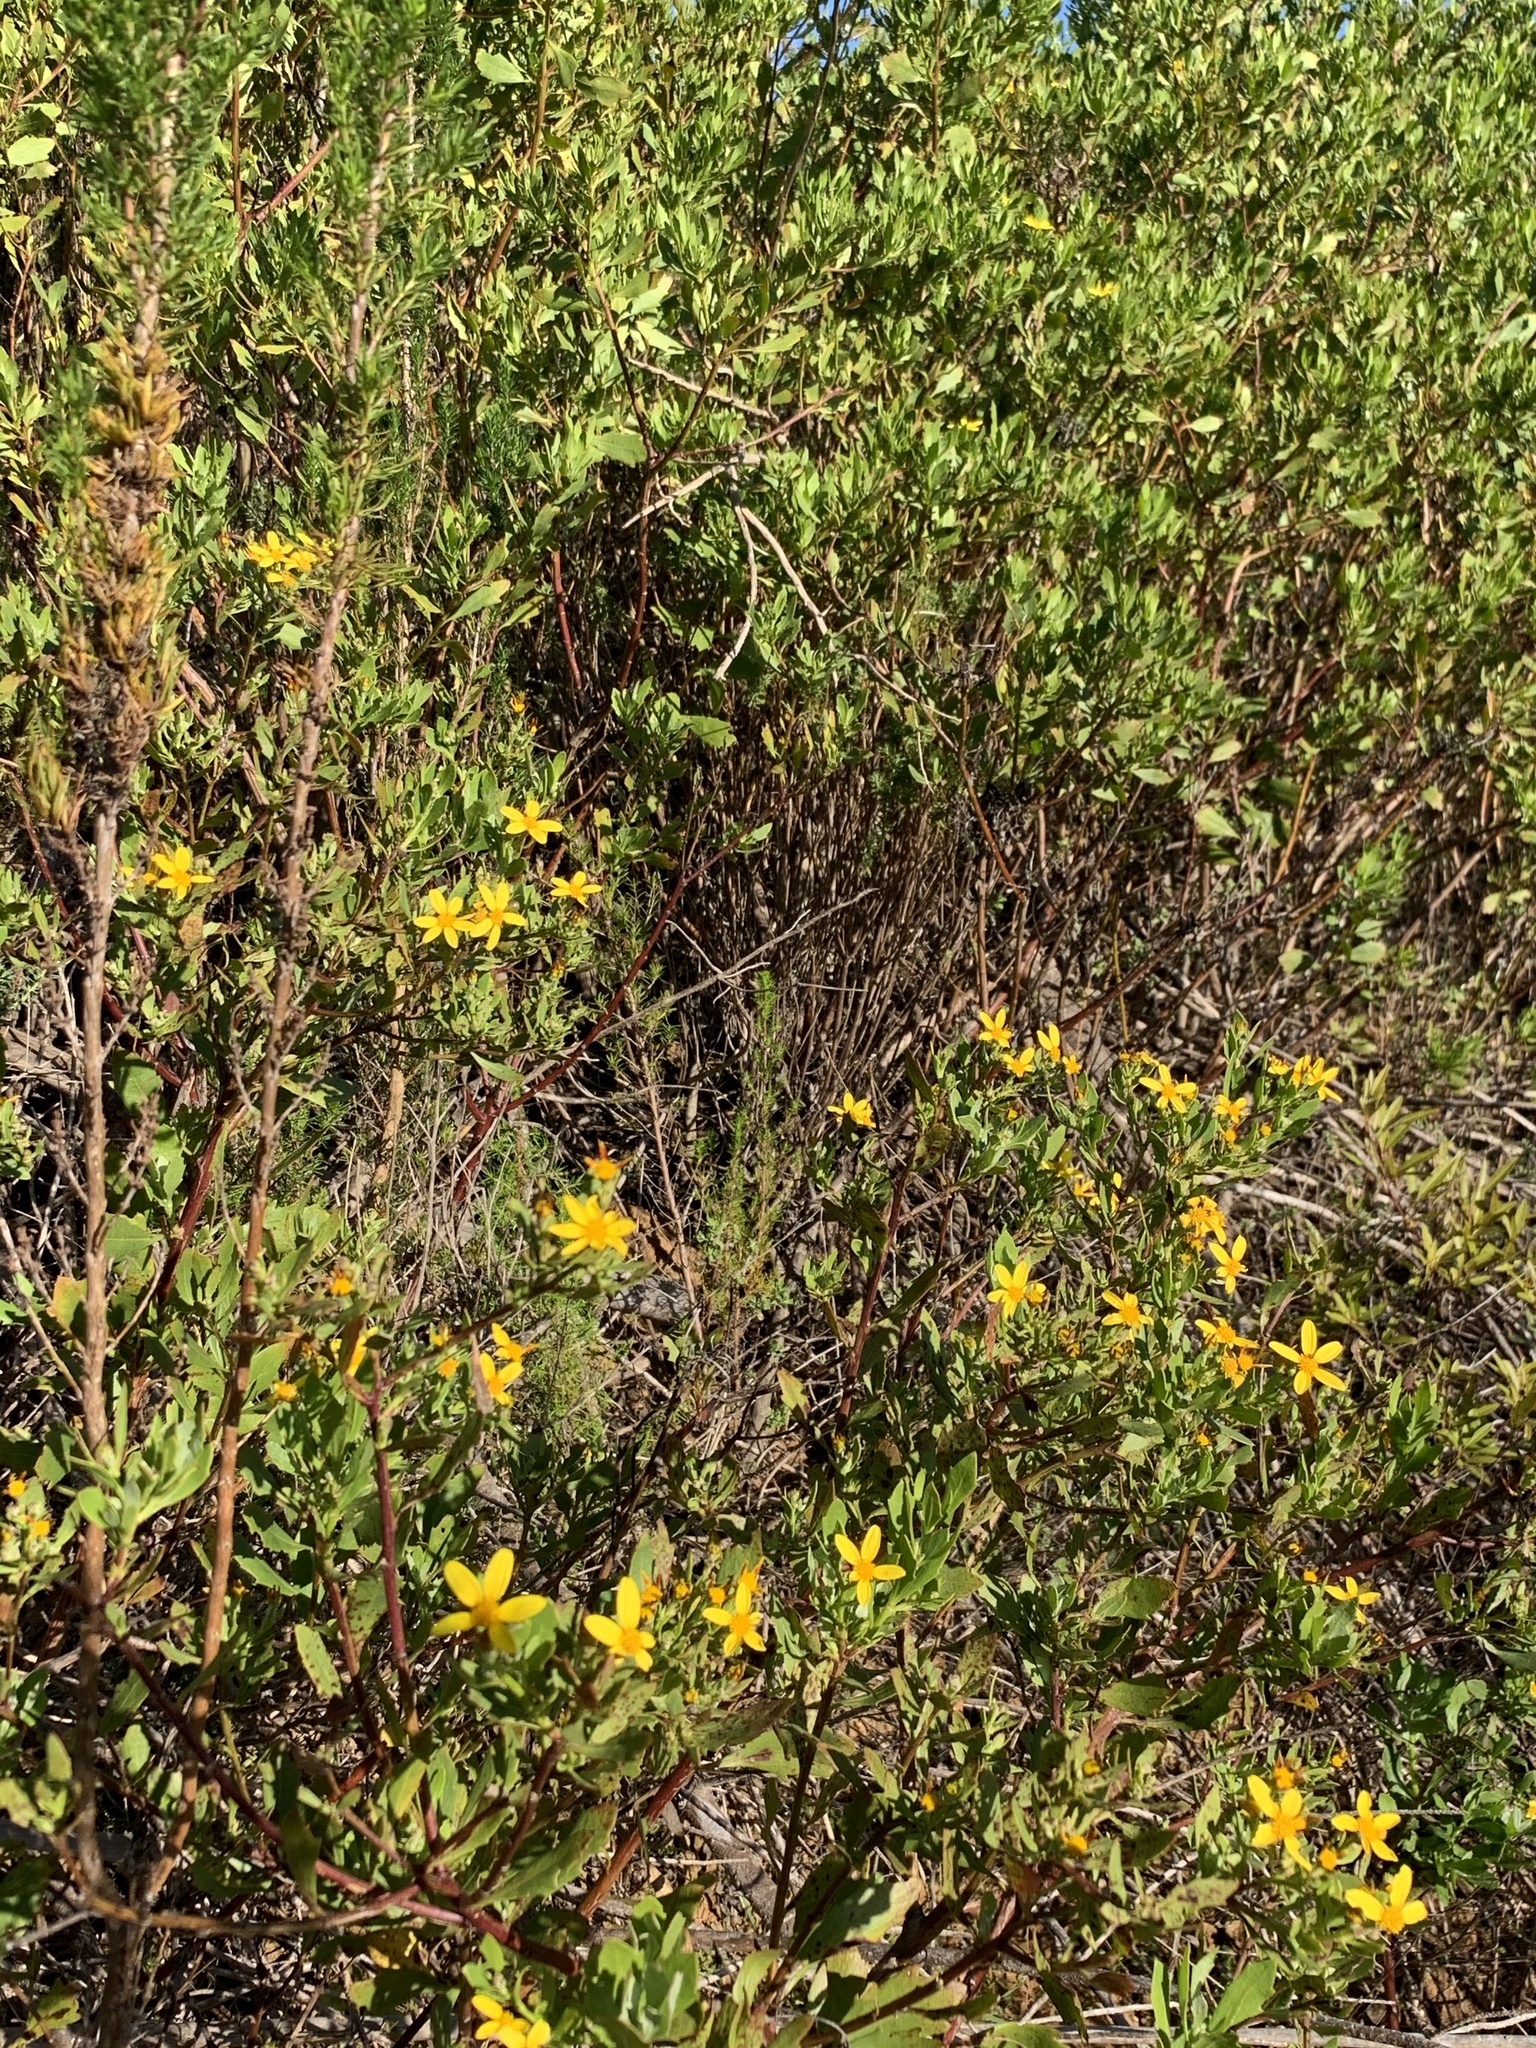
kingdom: Plantae
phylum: Tracheophyta
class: Magnoliopsida
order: Asterales
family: Asteraceae
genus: Osteospermum
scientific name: Osteospermum moniliferum
